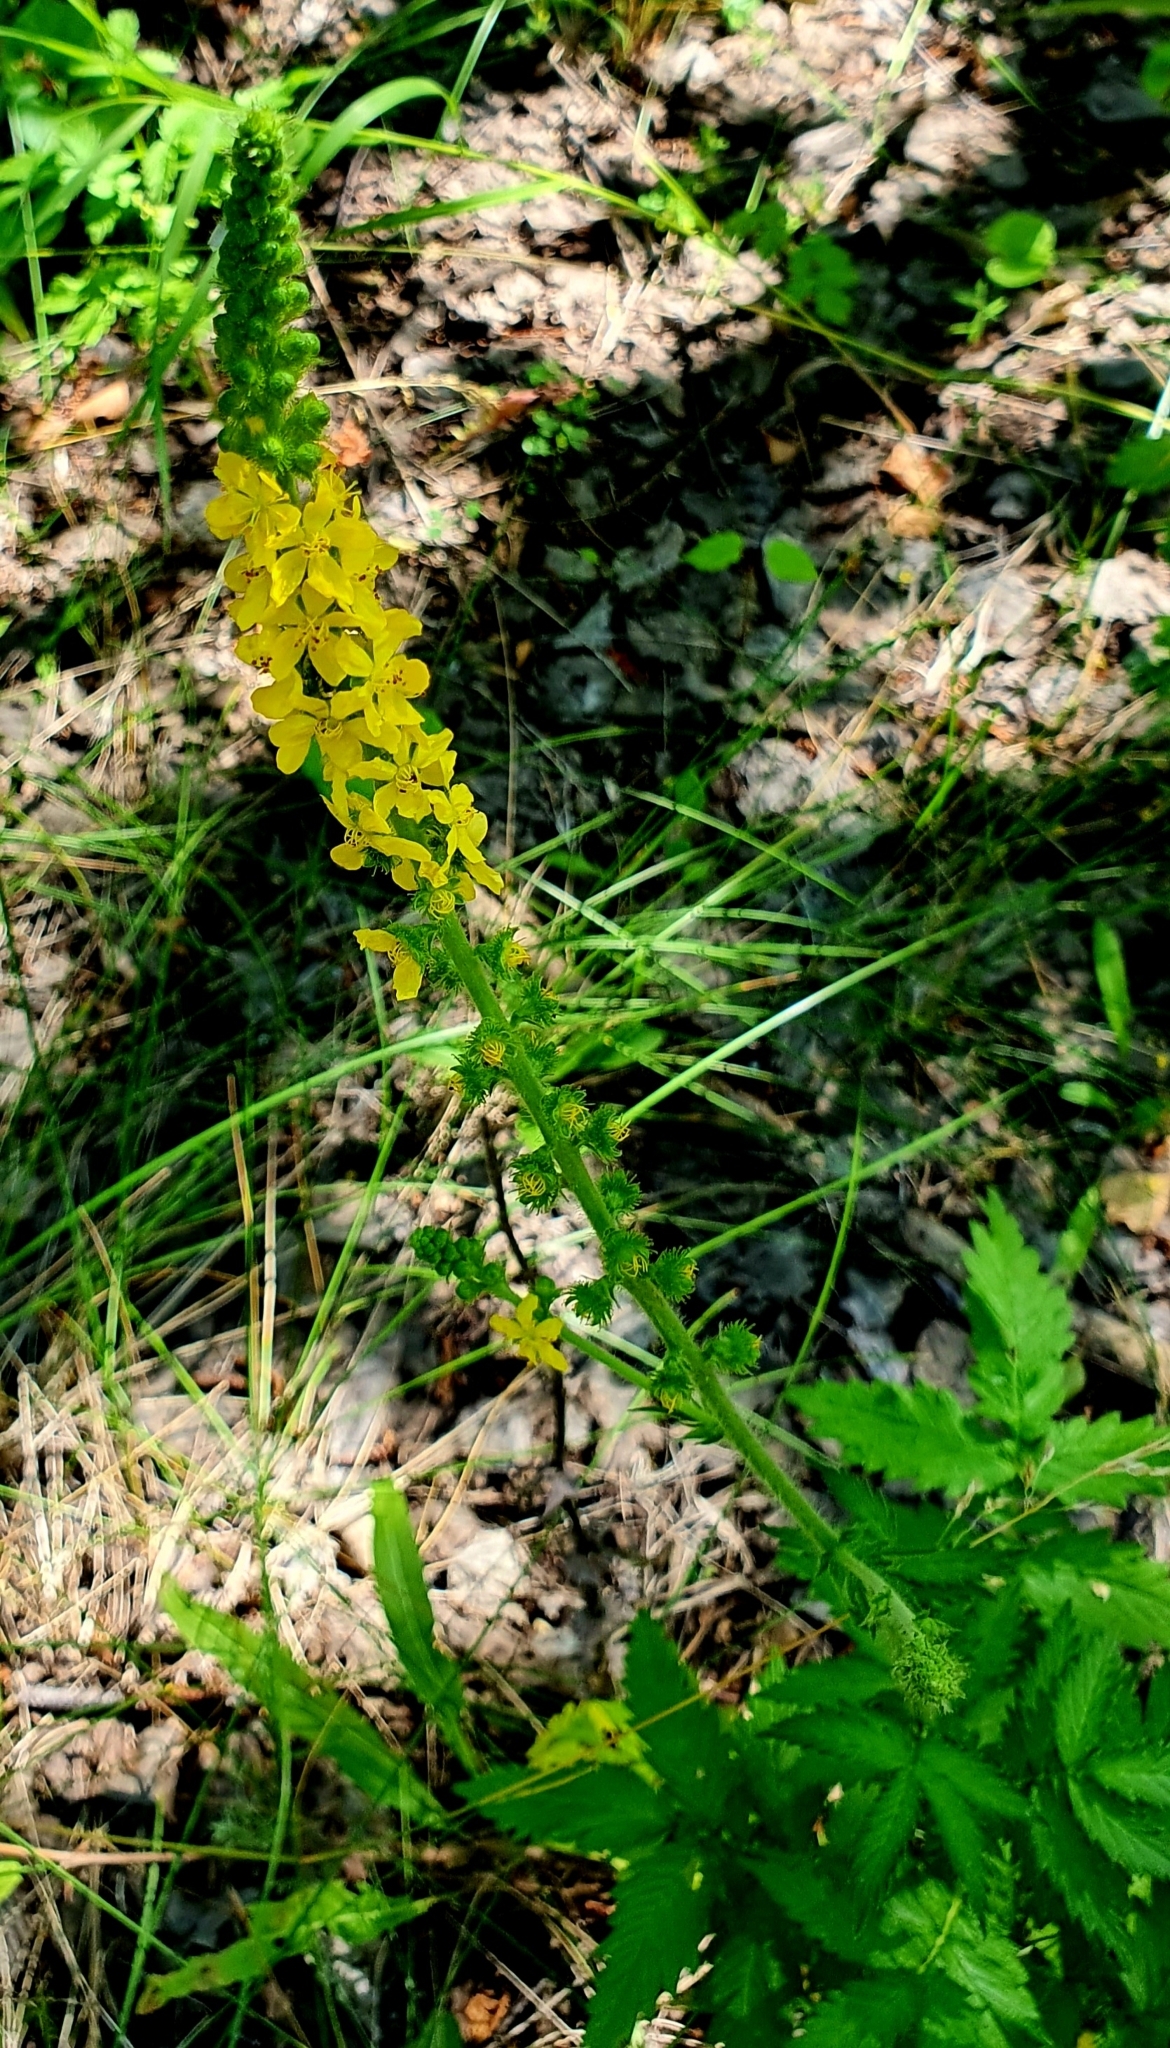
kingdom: Plantae
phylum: Tracheophyta
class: Magnoliopsida
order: Rosales
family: Rosaceae
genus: Agrimonia
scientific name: Agrimonia pilosa
